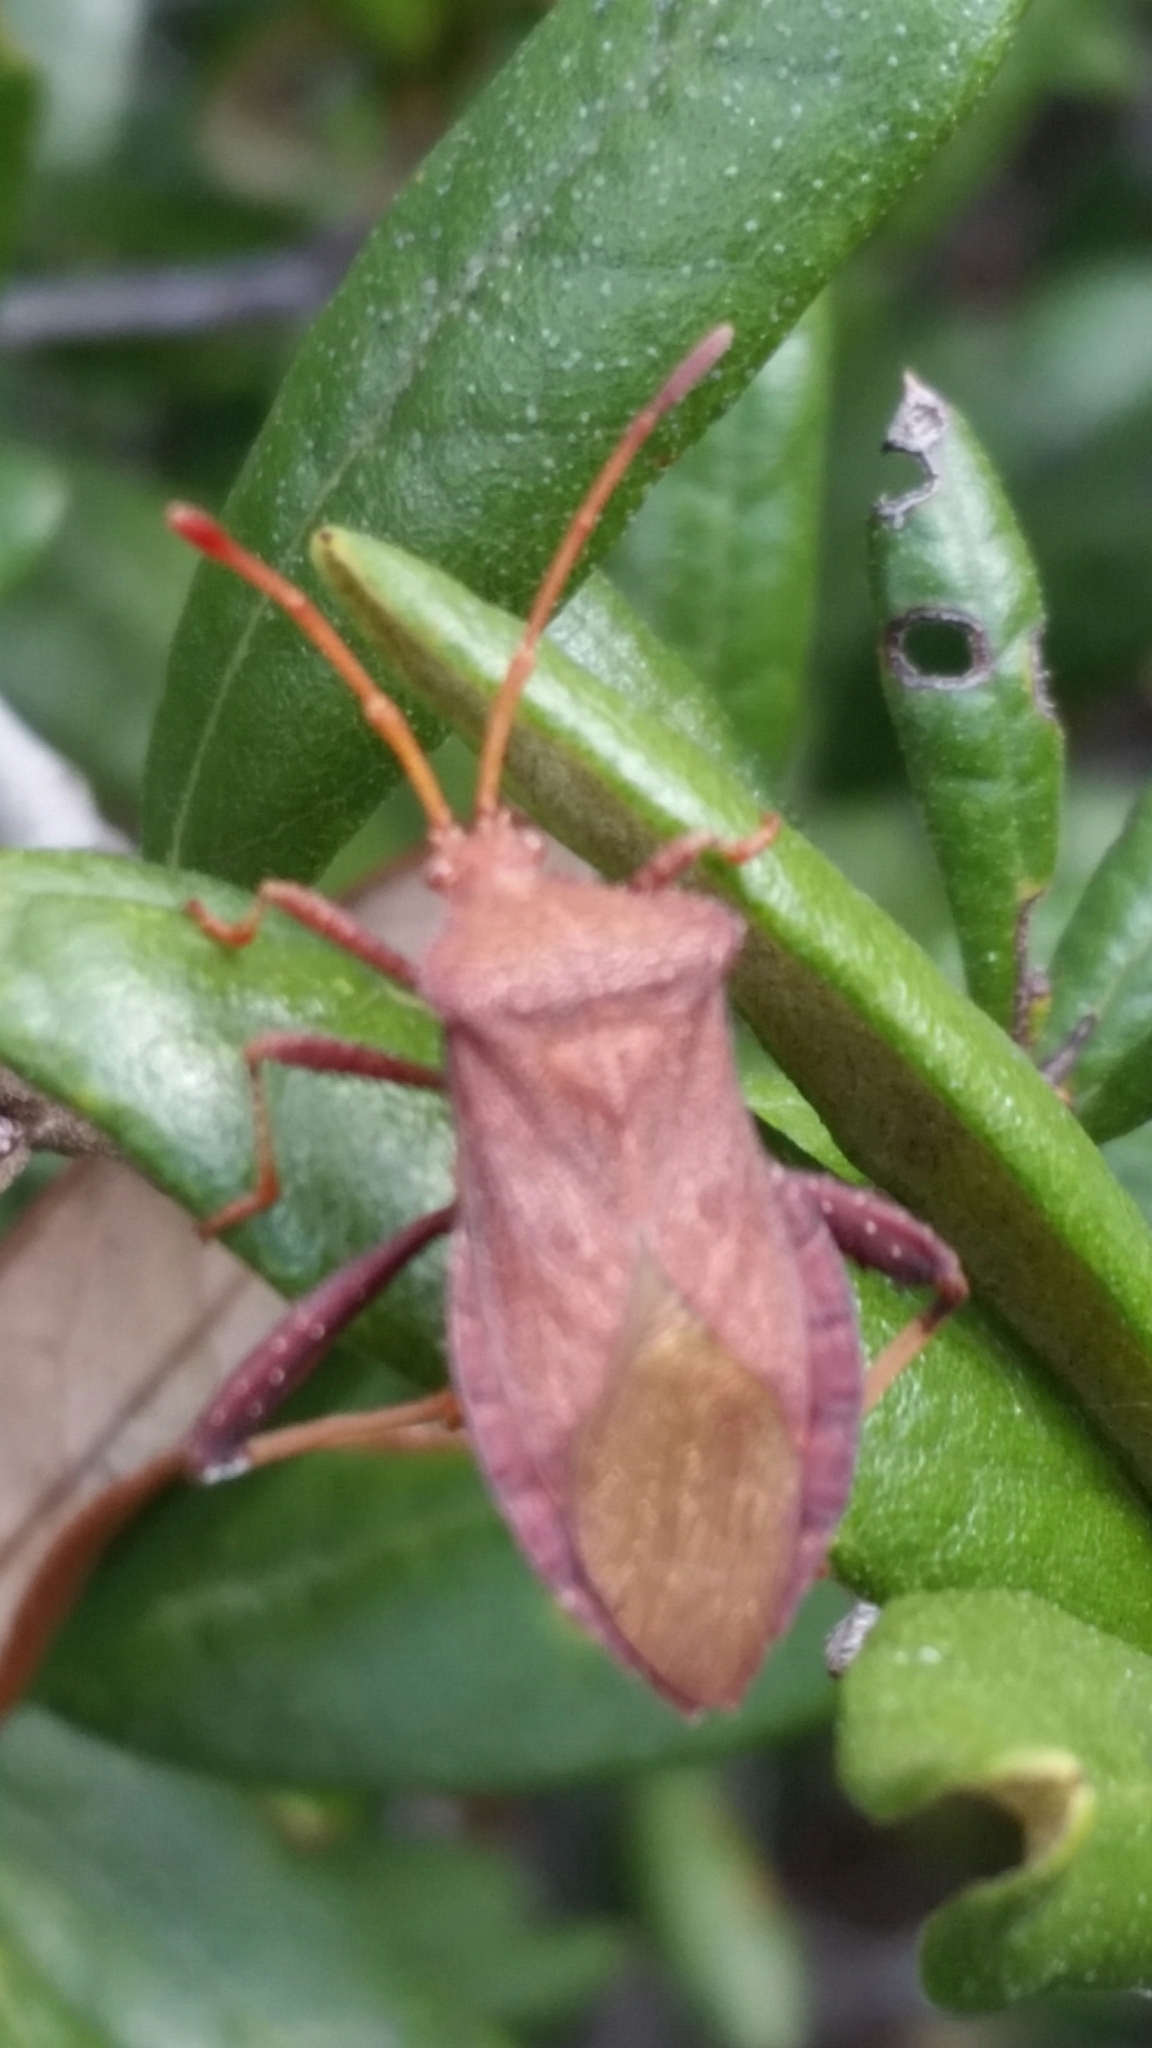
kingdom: Animalia
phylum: Arthropoda
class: Insecta
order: Hemiptera
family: Coreidae
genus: Euthochtha
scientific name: Euthochtha galeator
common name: Helmeted squash bug
